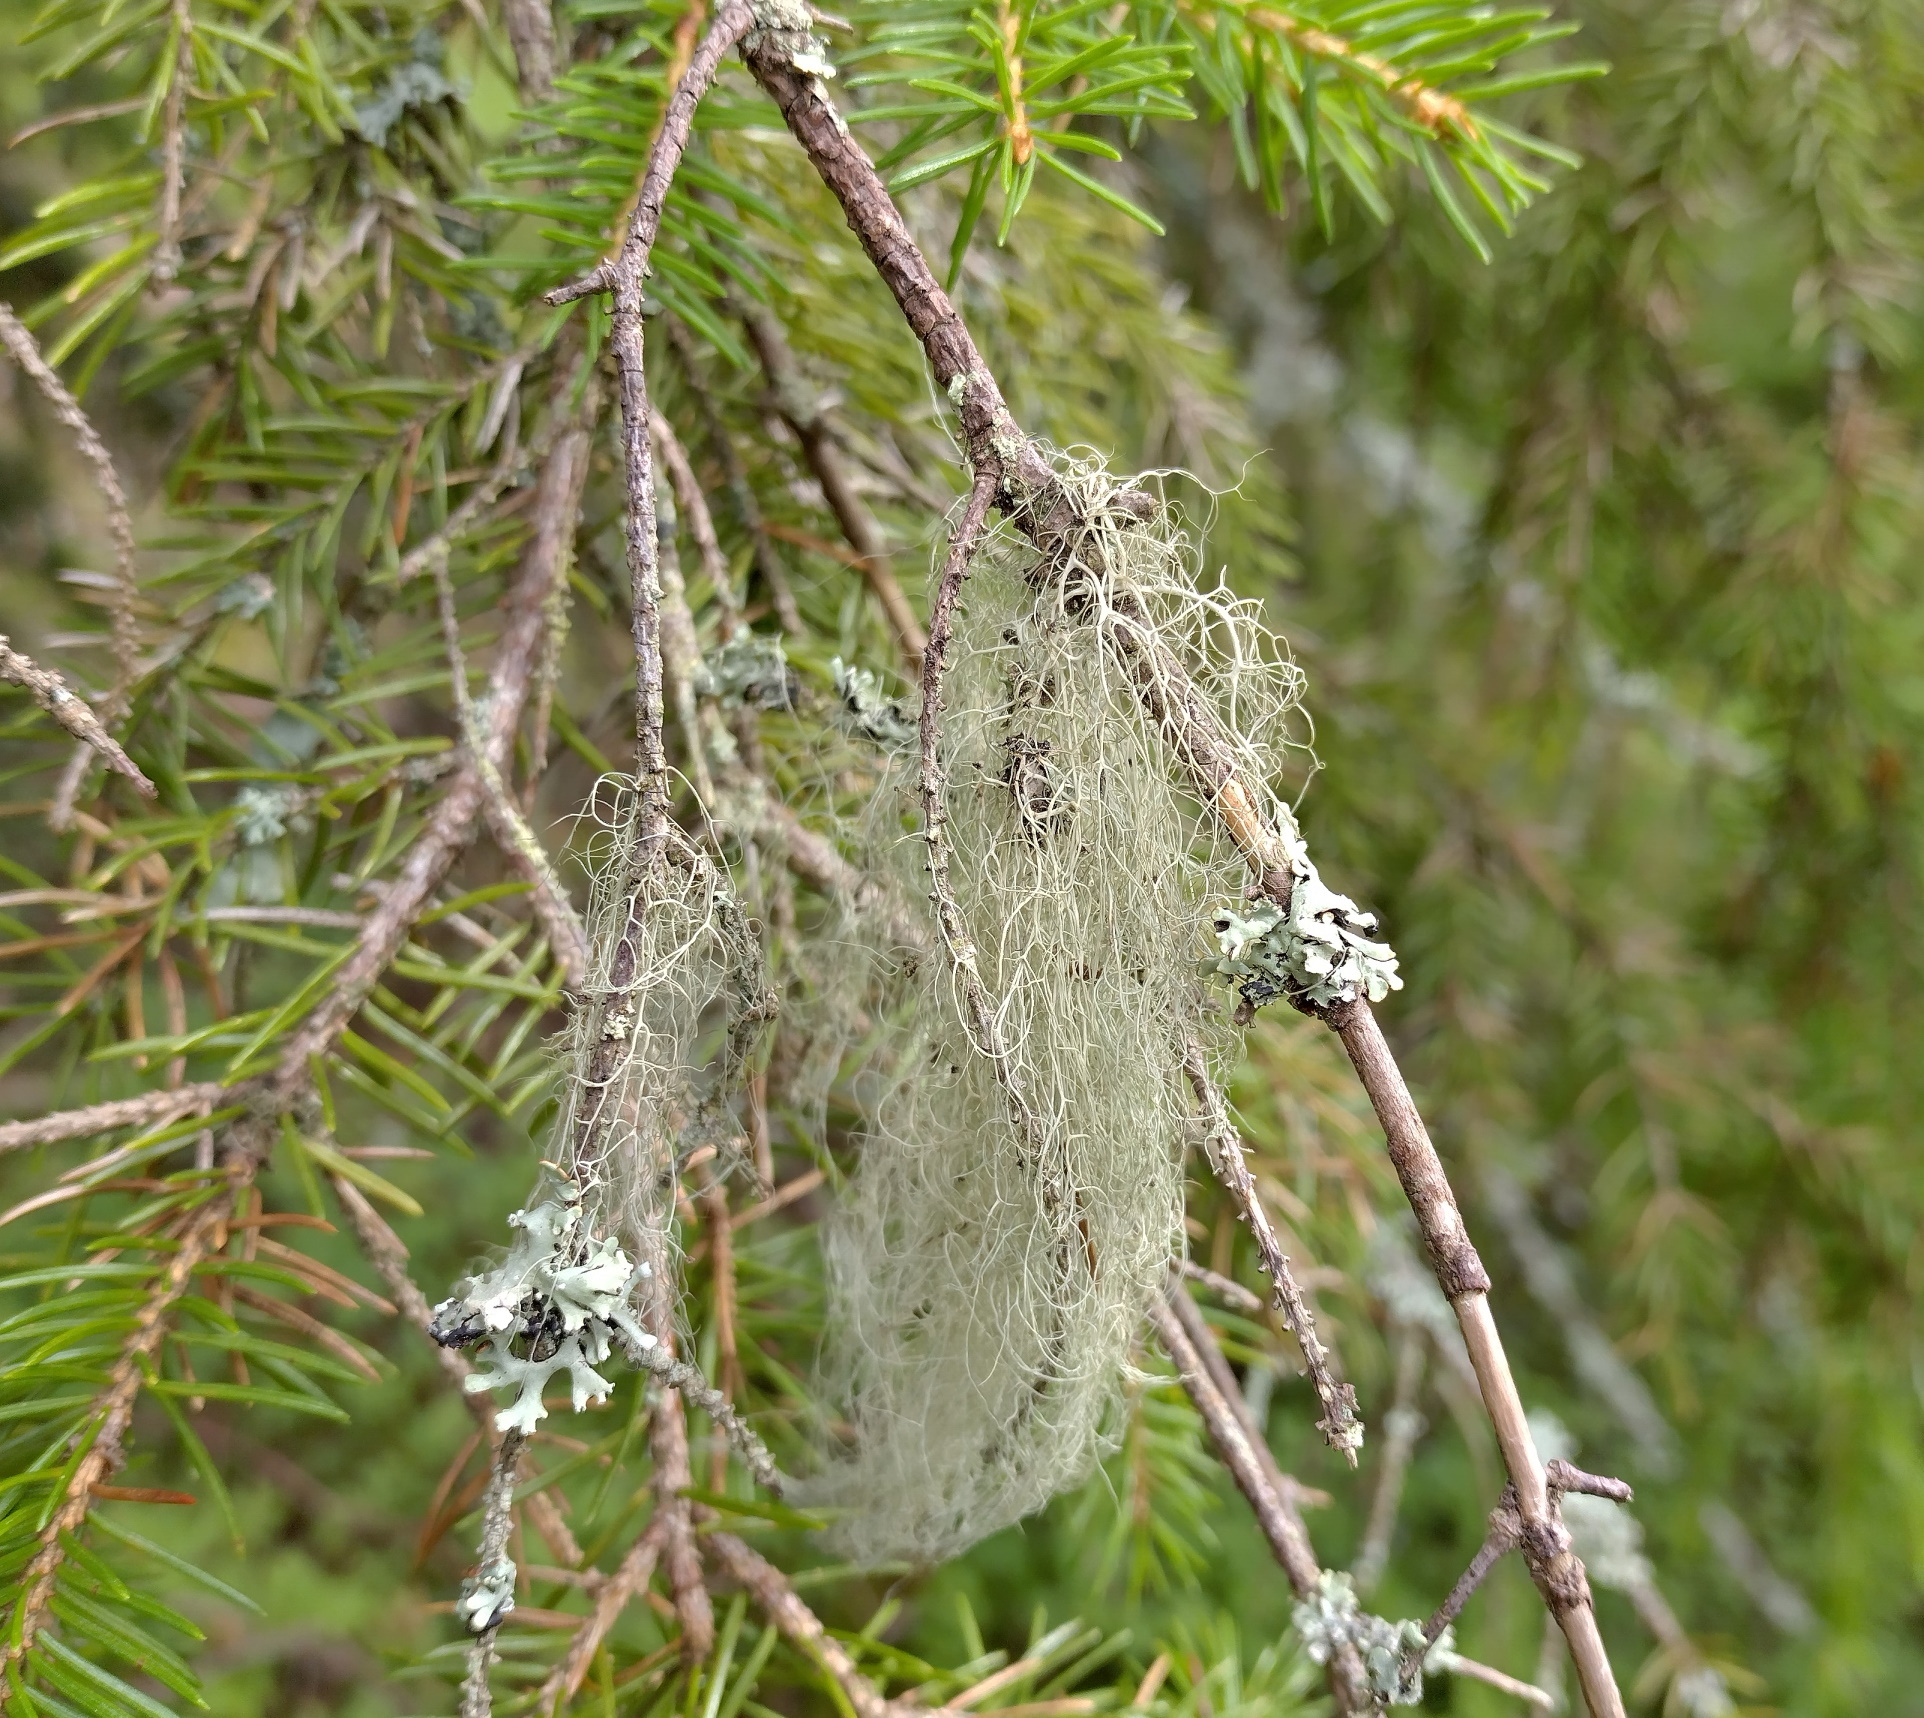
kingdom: Fungi
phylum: Ascomycota
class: Lecanoromycetes
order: Lecanorales
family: Parmeliaceae
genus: Bryoria
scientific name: Bryoria fuscescens
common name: Pale-footed horsehair lichen
